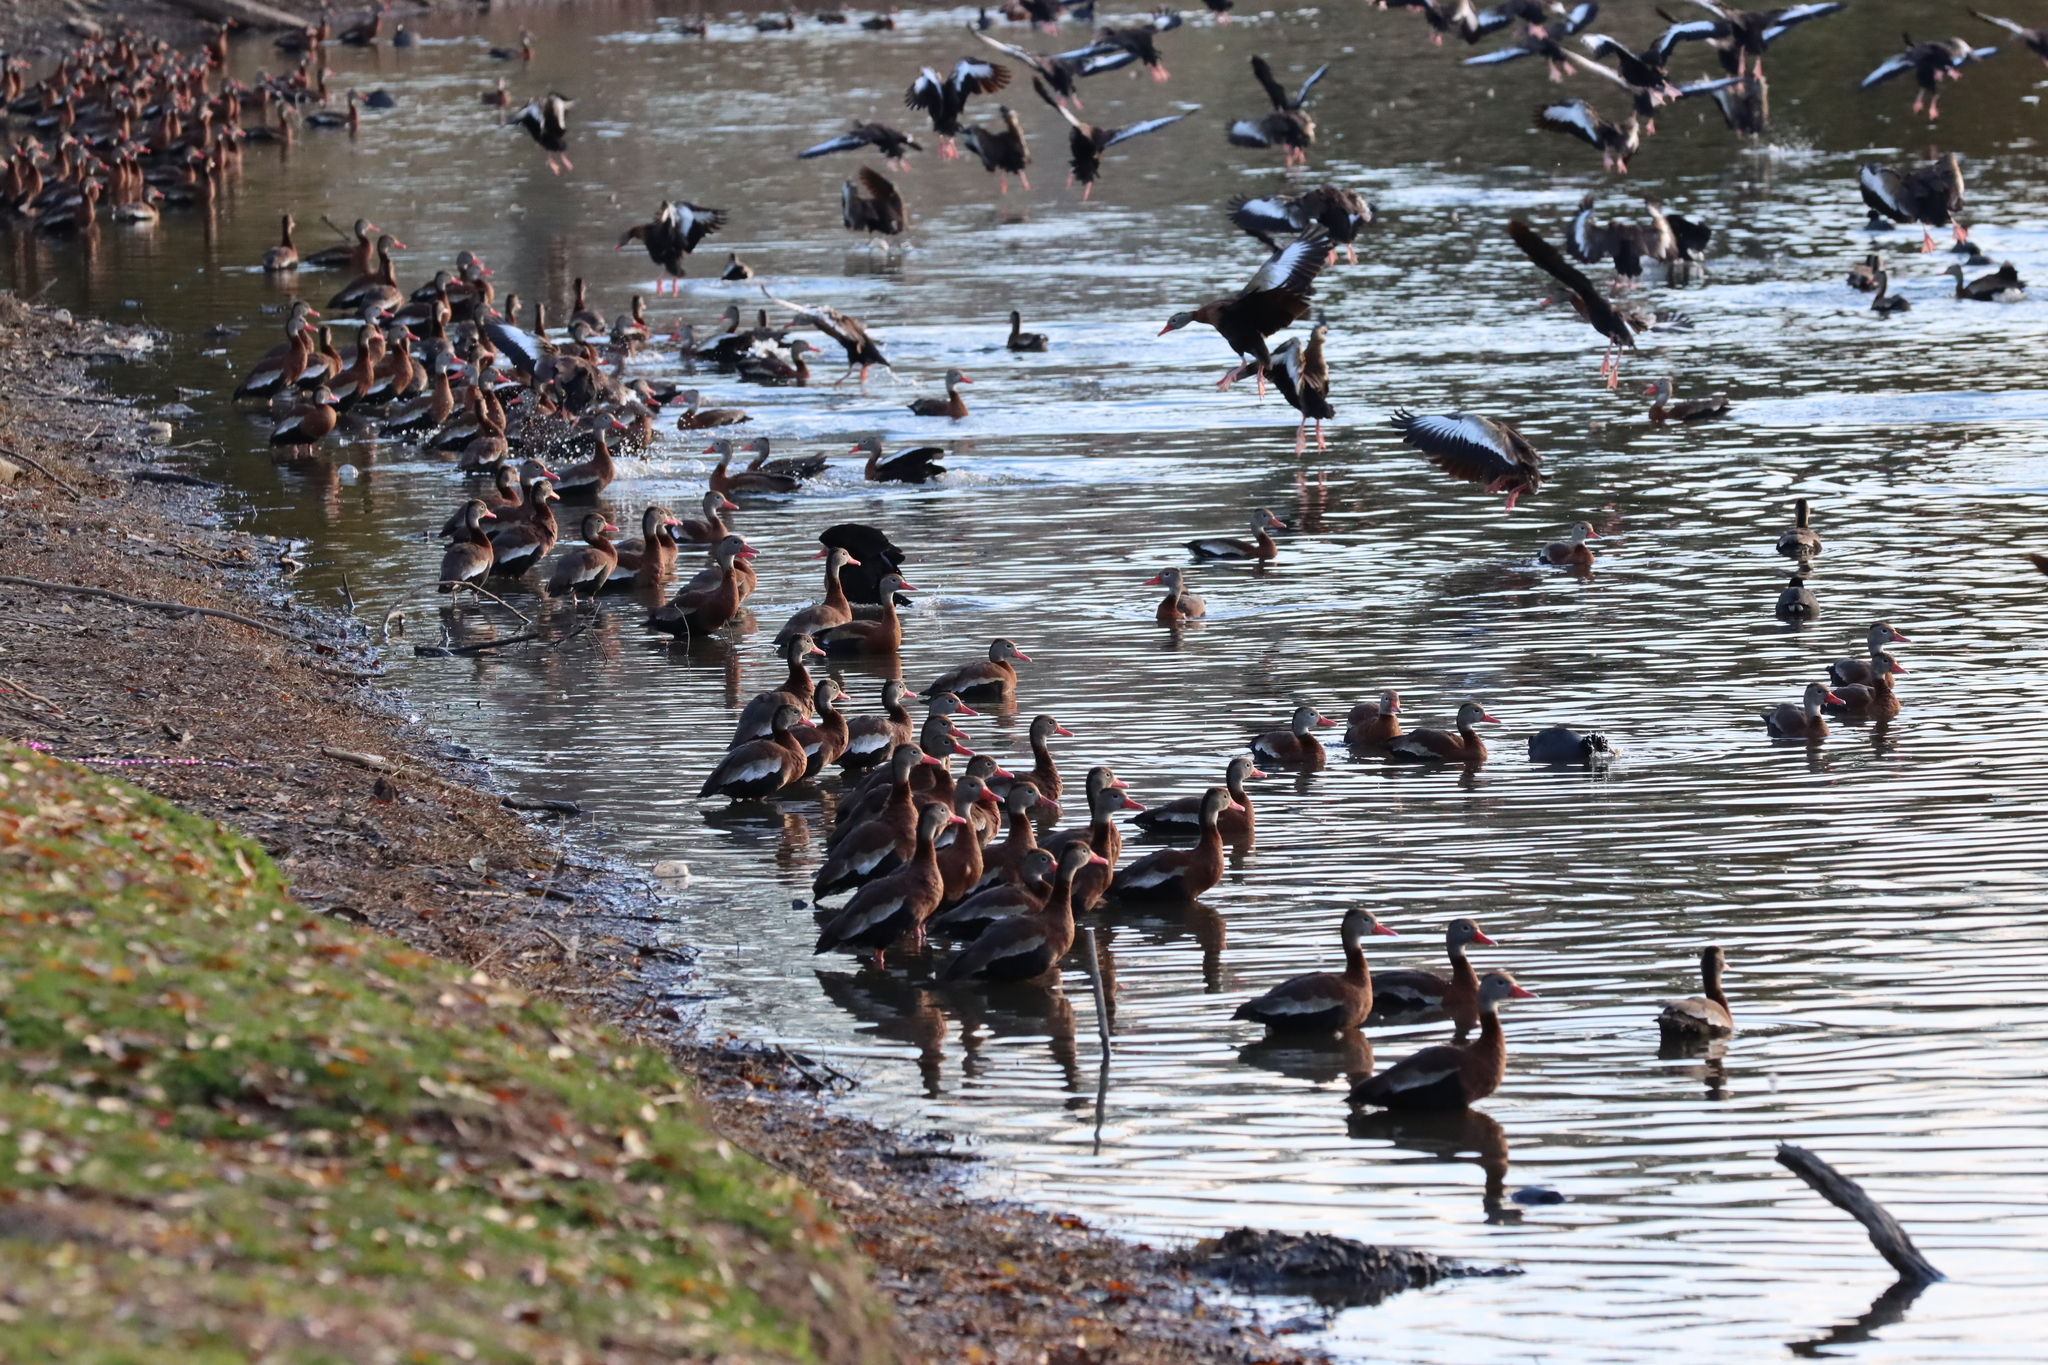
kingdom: Animalia
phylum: Chordata
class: Aves
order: Anseriformes
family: Anatidae
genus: Dendrocygna
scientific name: Dendrocygna autumnalis
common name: Black-bellied whistling duck
